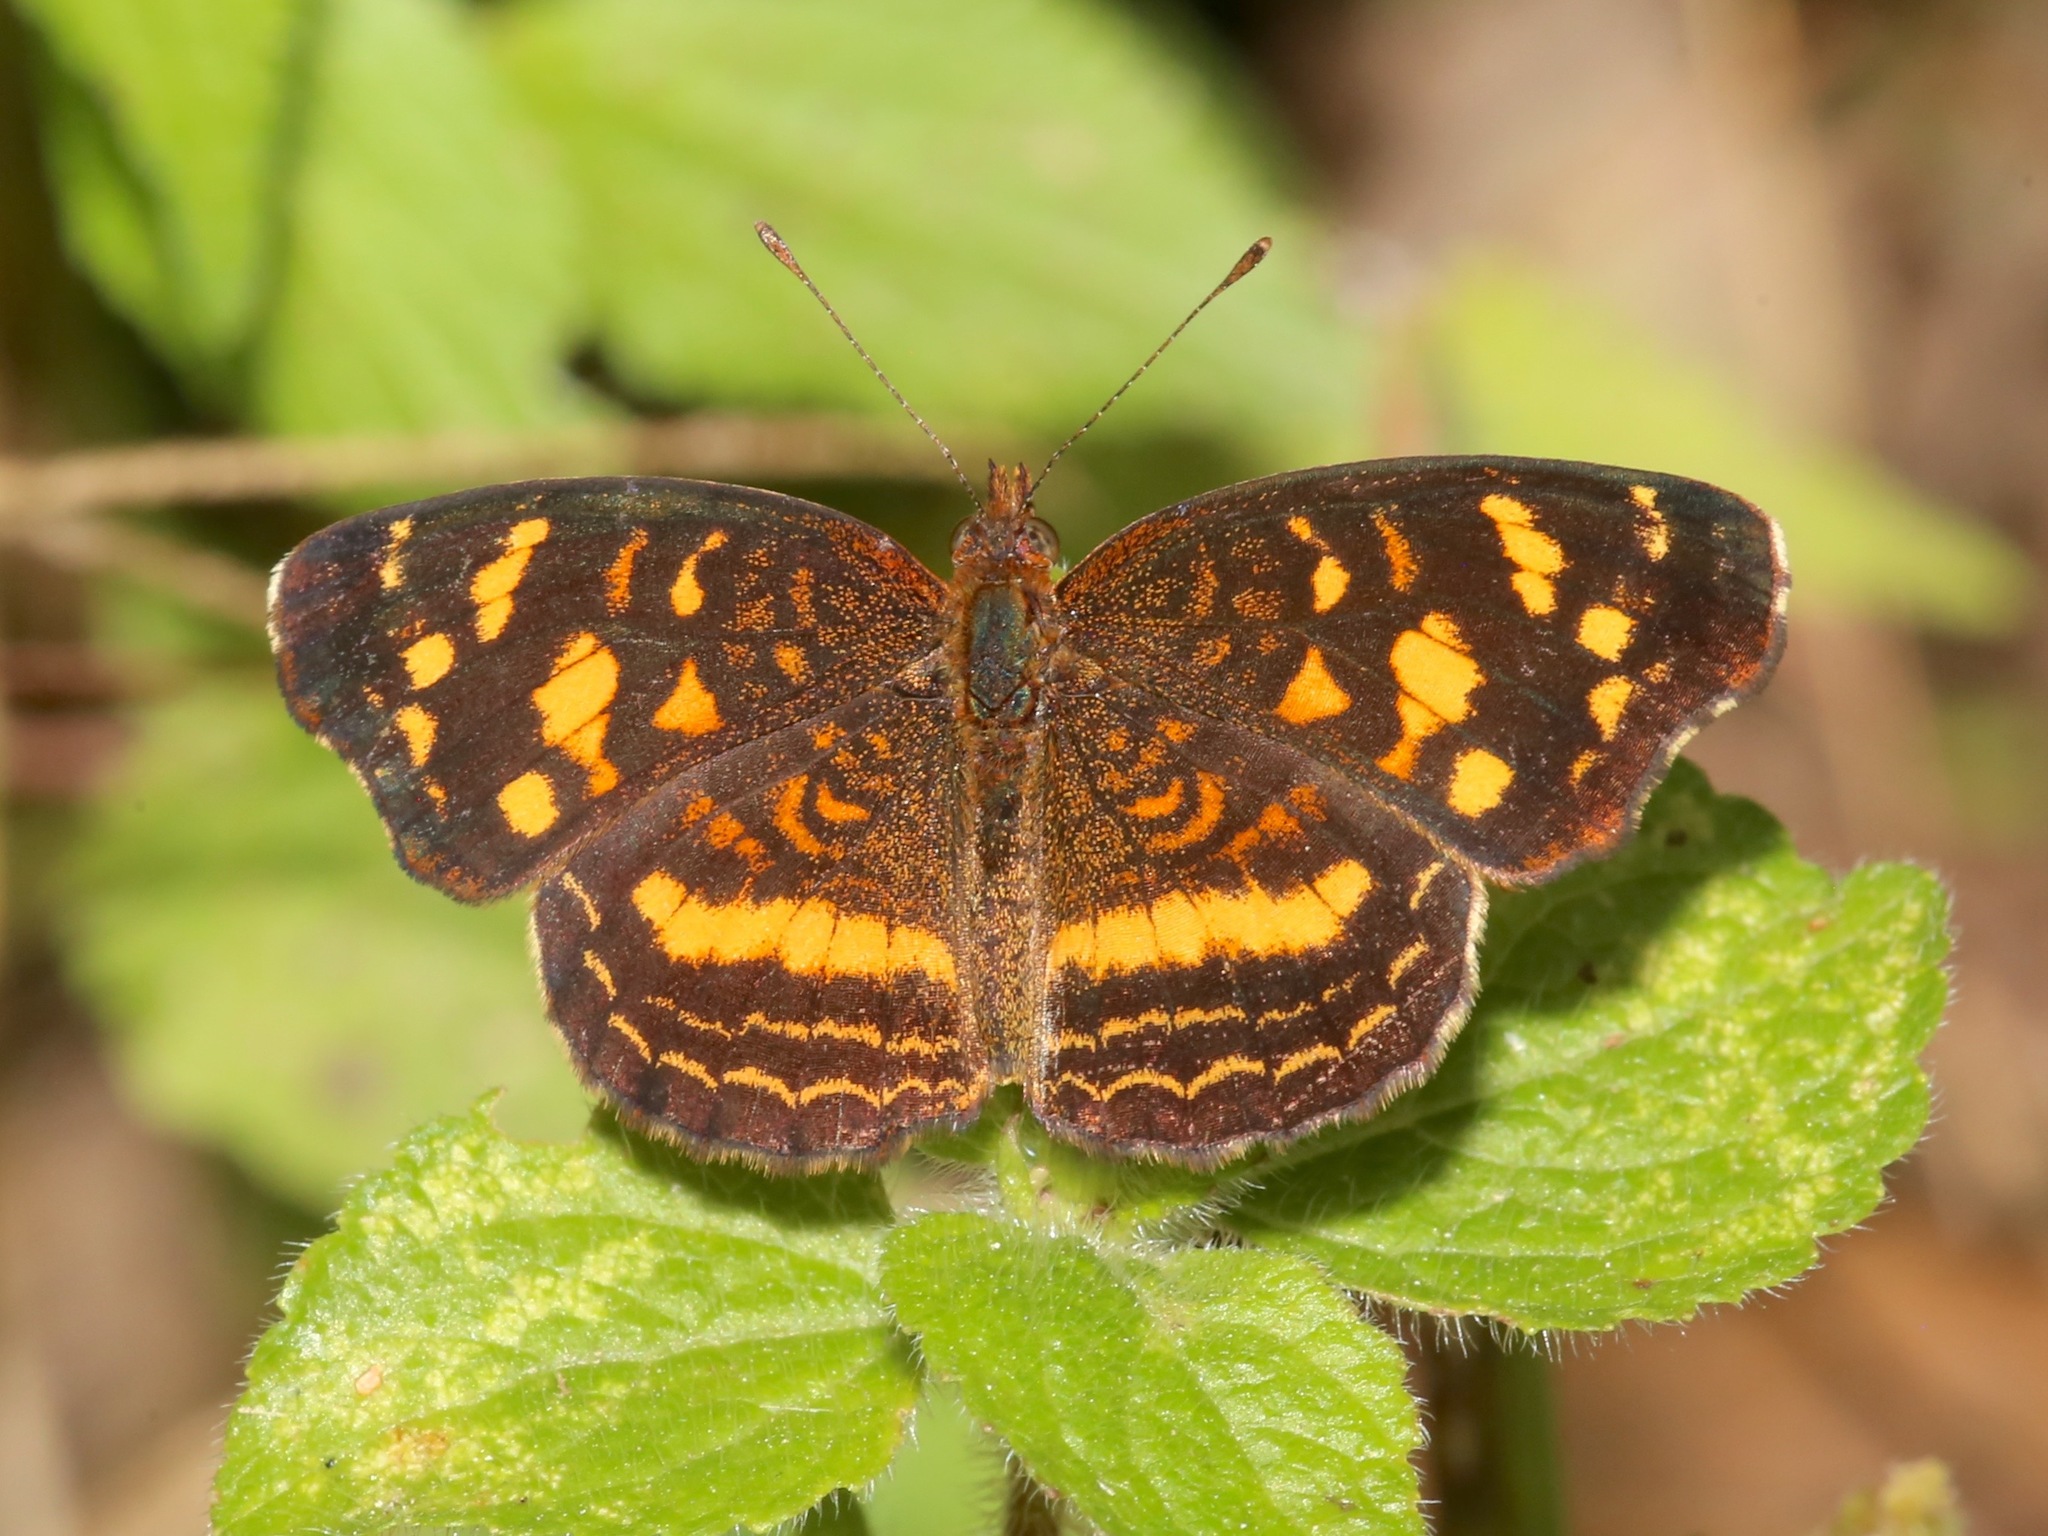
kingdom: Animalia
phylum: Arthropoda
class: Insecta
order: Lepidoptera
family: Nymphalidae
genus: Anthanassa
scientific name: Anthanassa drusilla
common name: Orange-patched crescent
